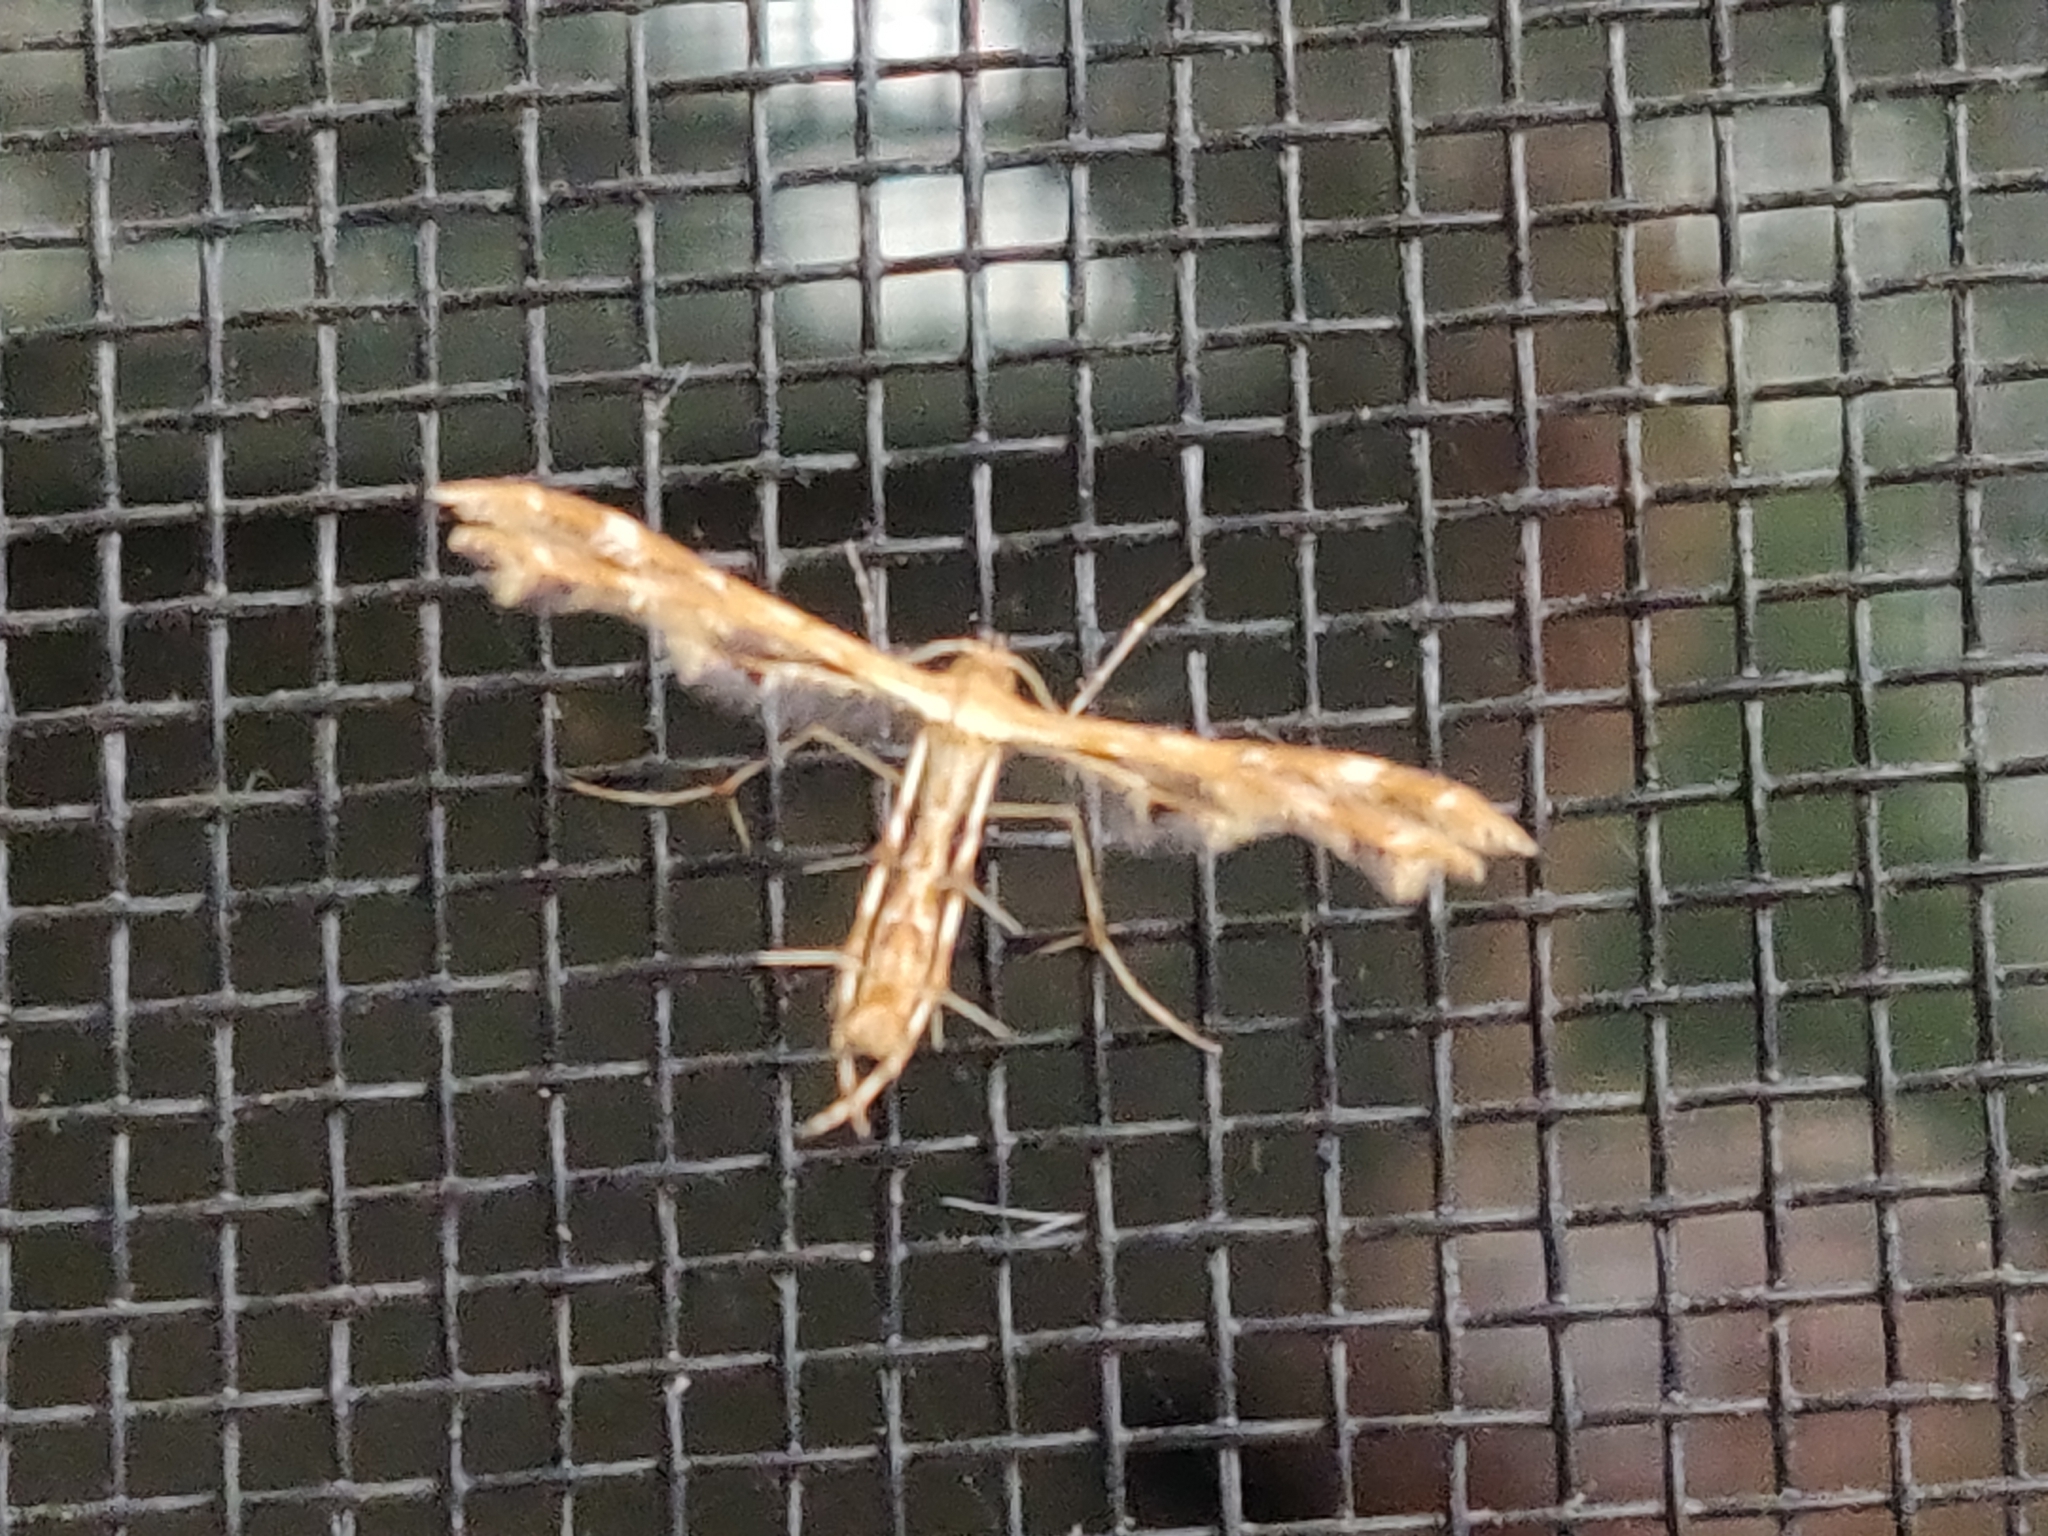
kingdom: Animalia
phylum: Arthropoda
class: Insecta
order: Lepidoptera
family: Pterophoridae
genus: Sphenarches
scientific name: Sphenarches anisodactylus
